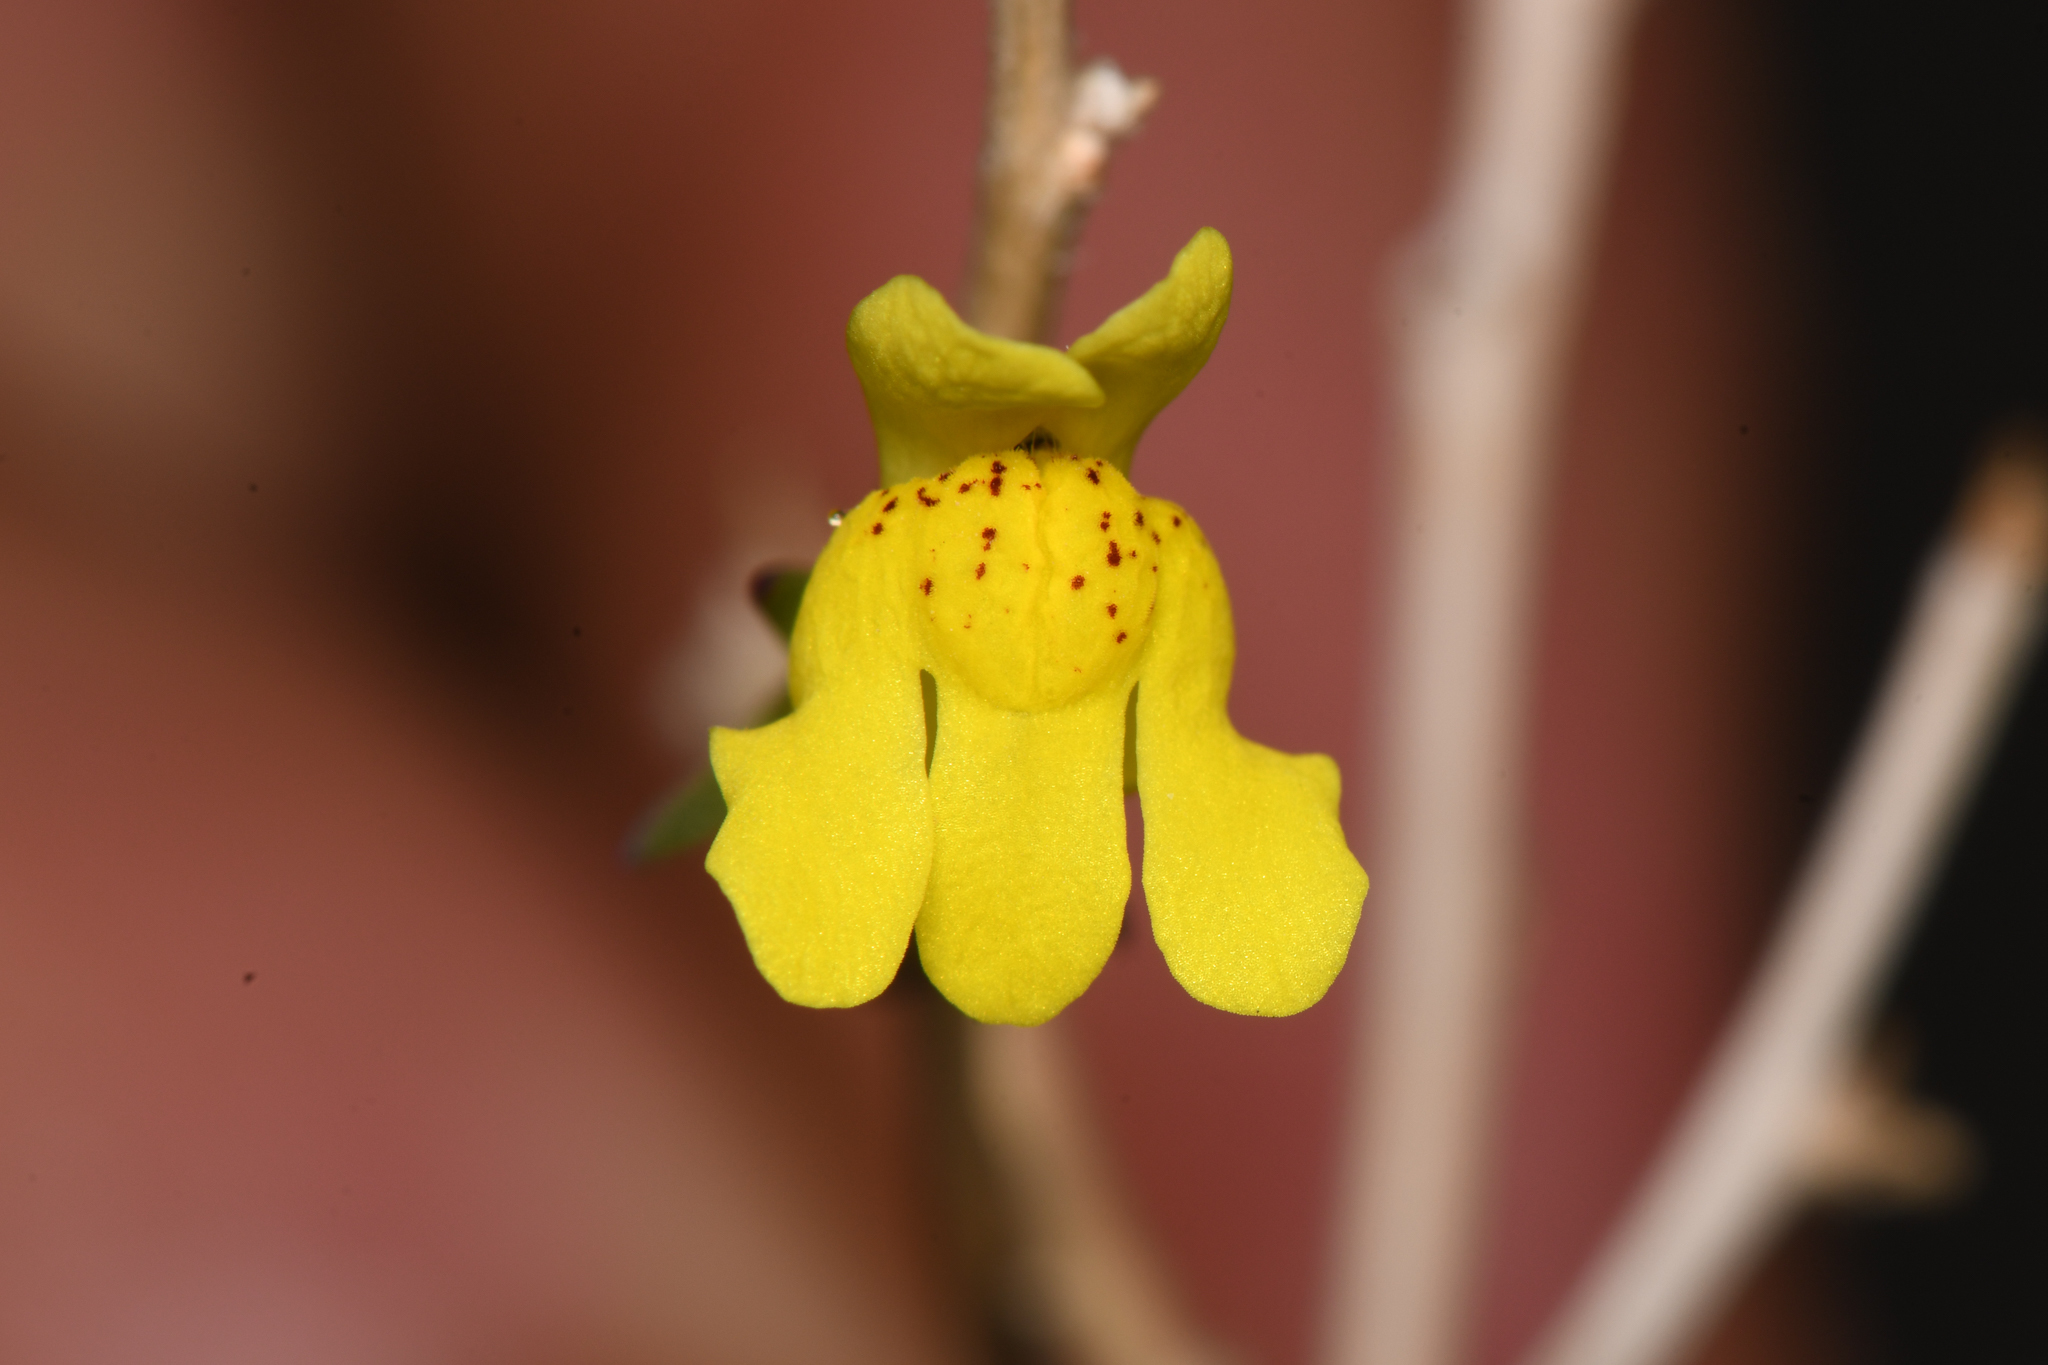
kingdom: Plantae
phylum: Tracheophyta
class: Magnoliopsida
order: Lamiales
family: Plantaginaceae
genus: Neogaerrhinum
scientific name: Neogaerrhinum filipes
